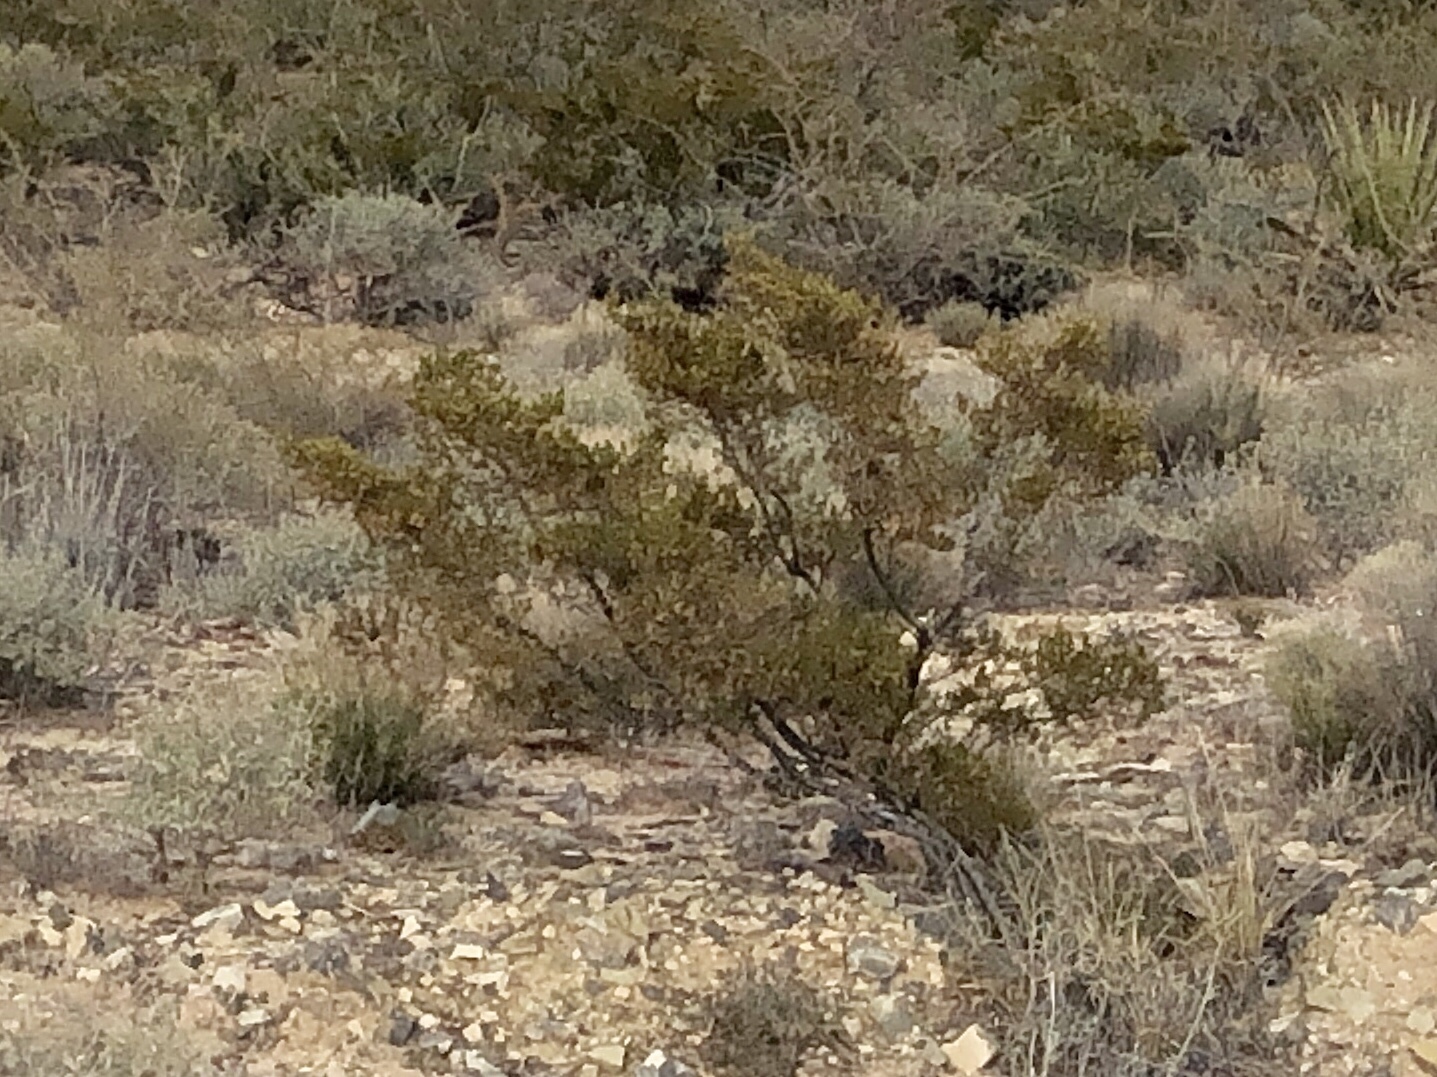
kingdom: Plantae
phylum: Tracheophyta
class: Magnoliopsida
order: Zygophyllales
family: Zygophyllaceae
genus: Larrea
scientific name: Larrea tridentata
